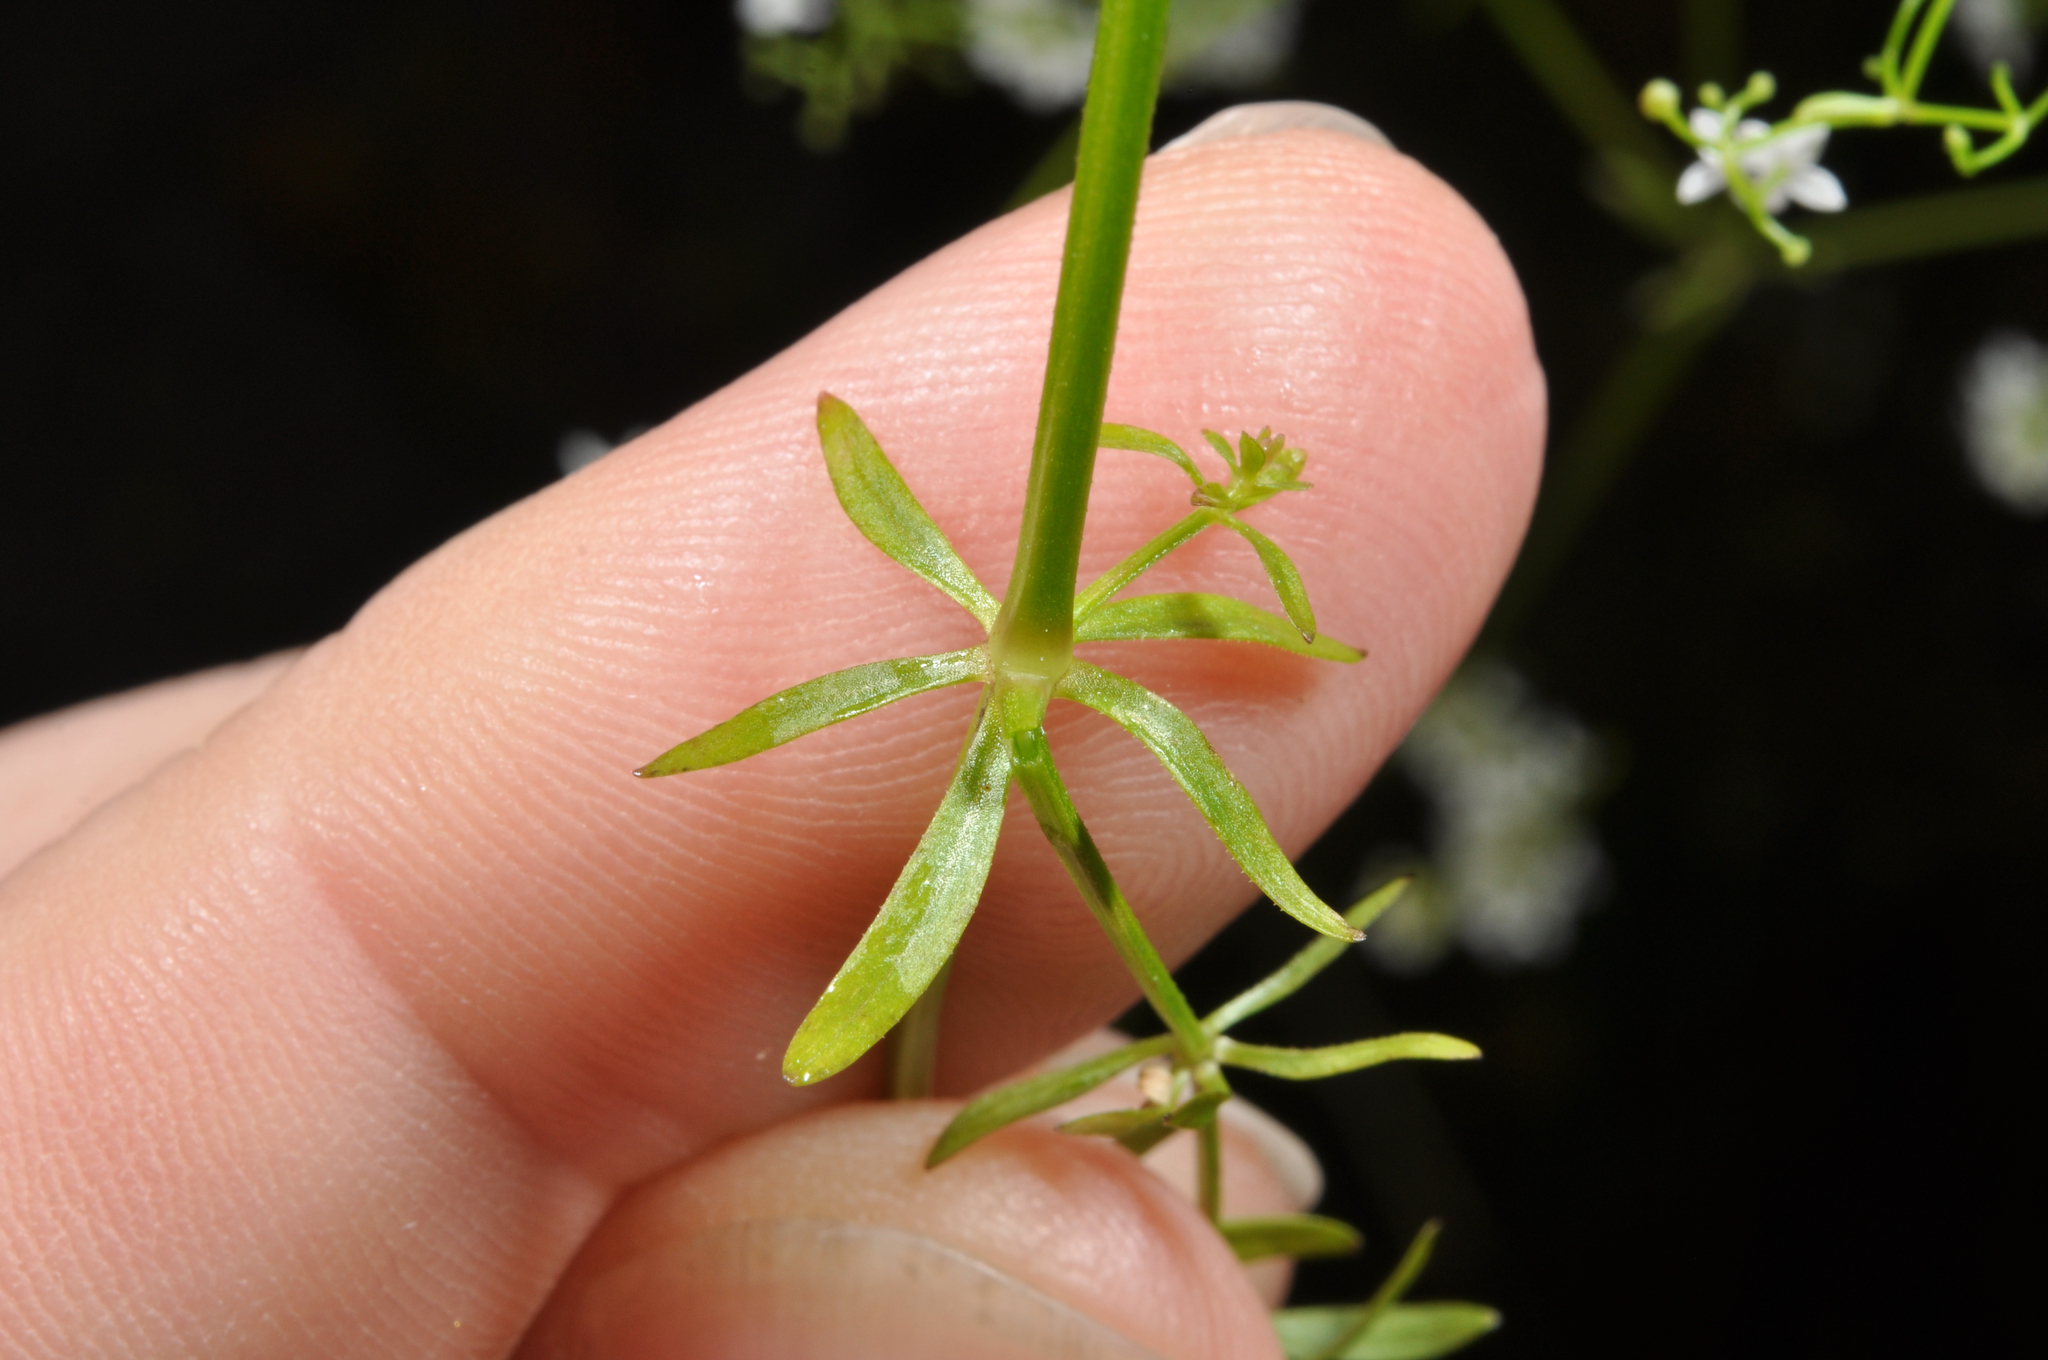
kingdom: Plantae
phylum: Tracheophyta
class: Magnoliopsida
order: Gentianales
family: Rubiaceae
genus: Galium
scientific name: Galium palustre
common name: Common marsh-bedstraw
